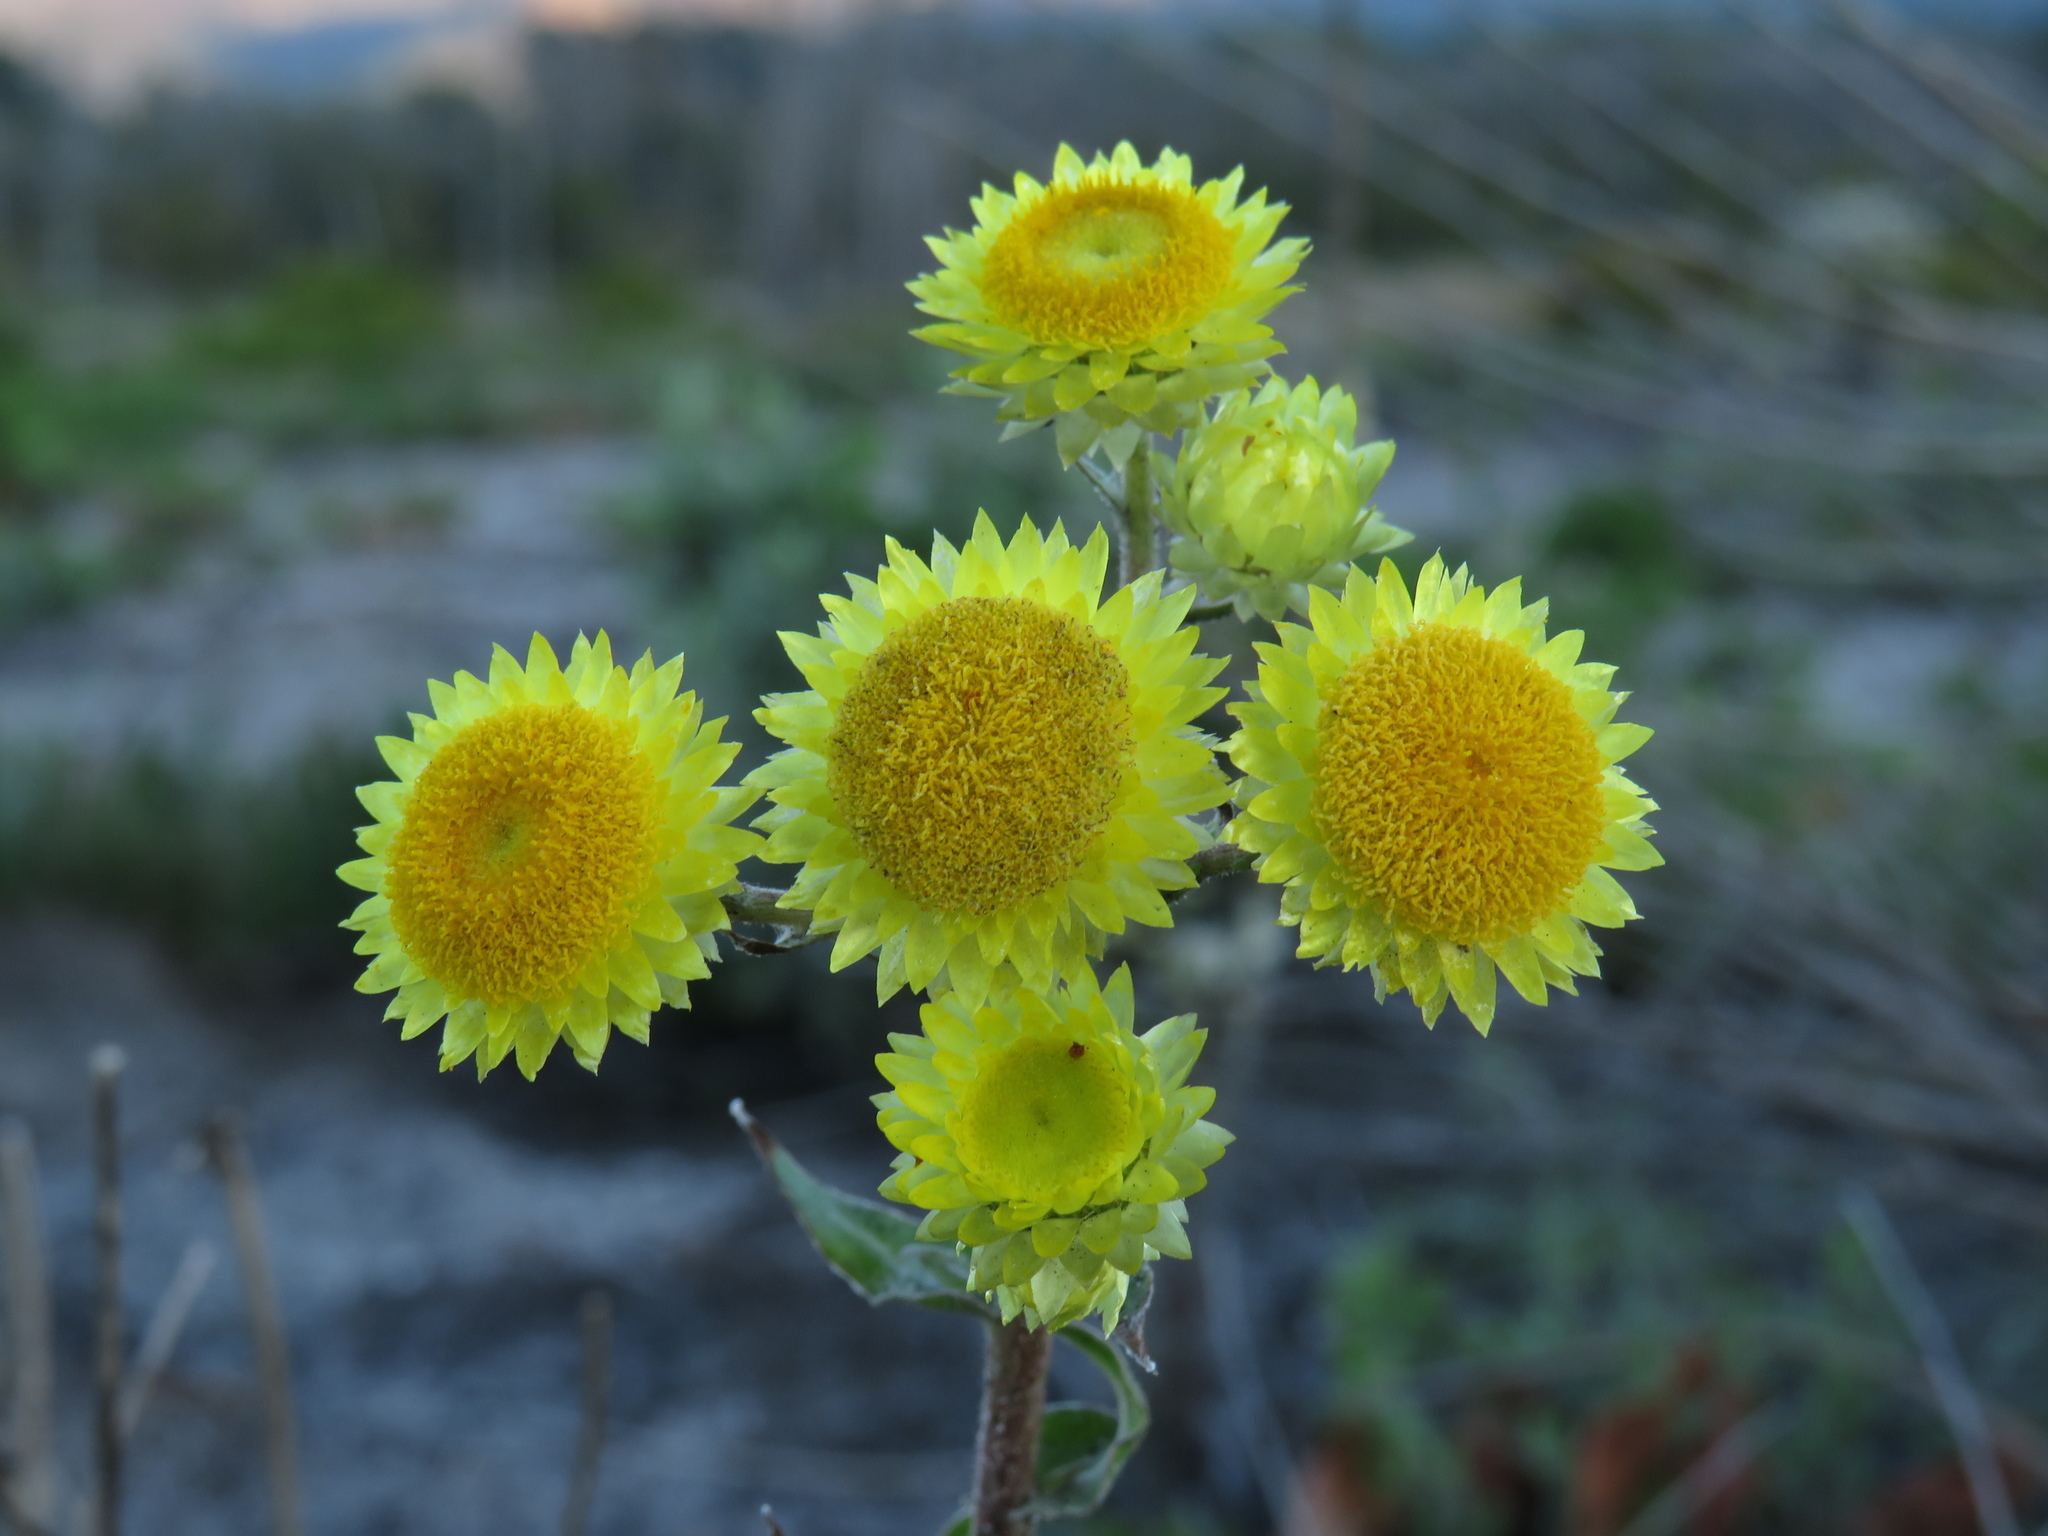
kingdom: Plantae
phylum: Tracheophyta
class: Magnoliopsida
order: Asterales
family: Asteraceae
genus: Helichrysum
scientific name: Helichrysum foetidum
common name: Stinking everlasting
